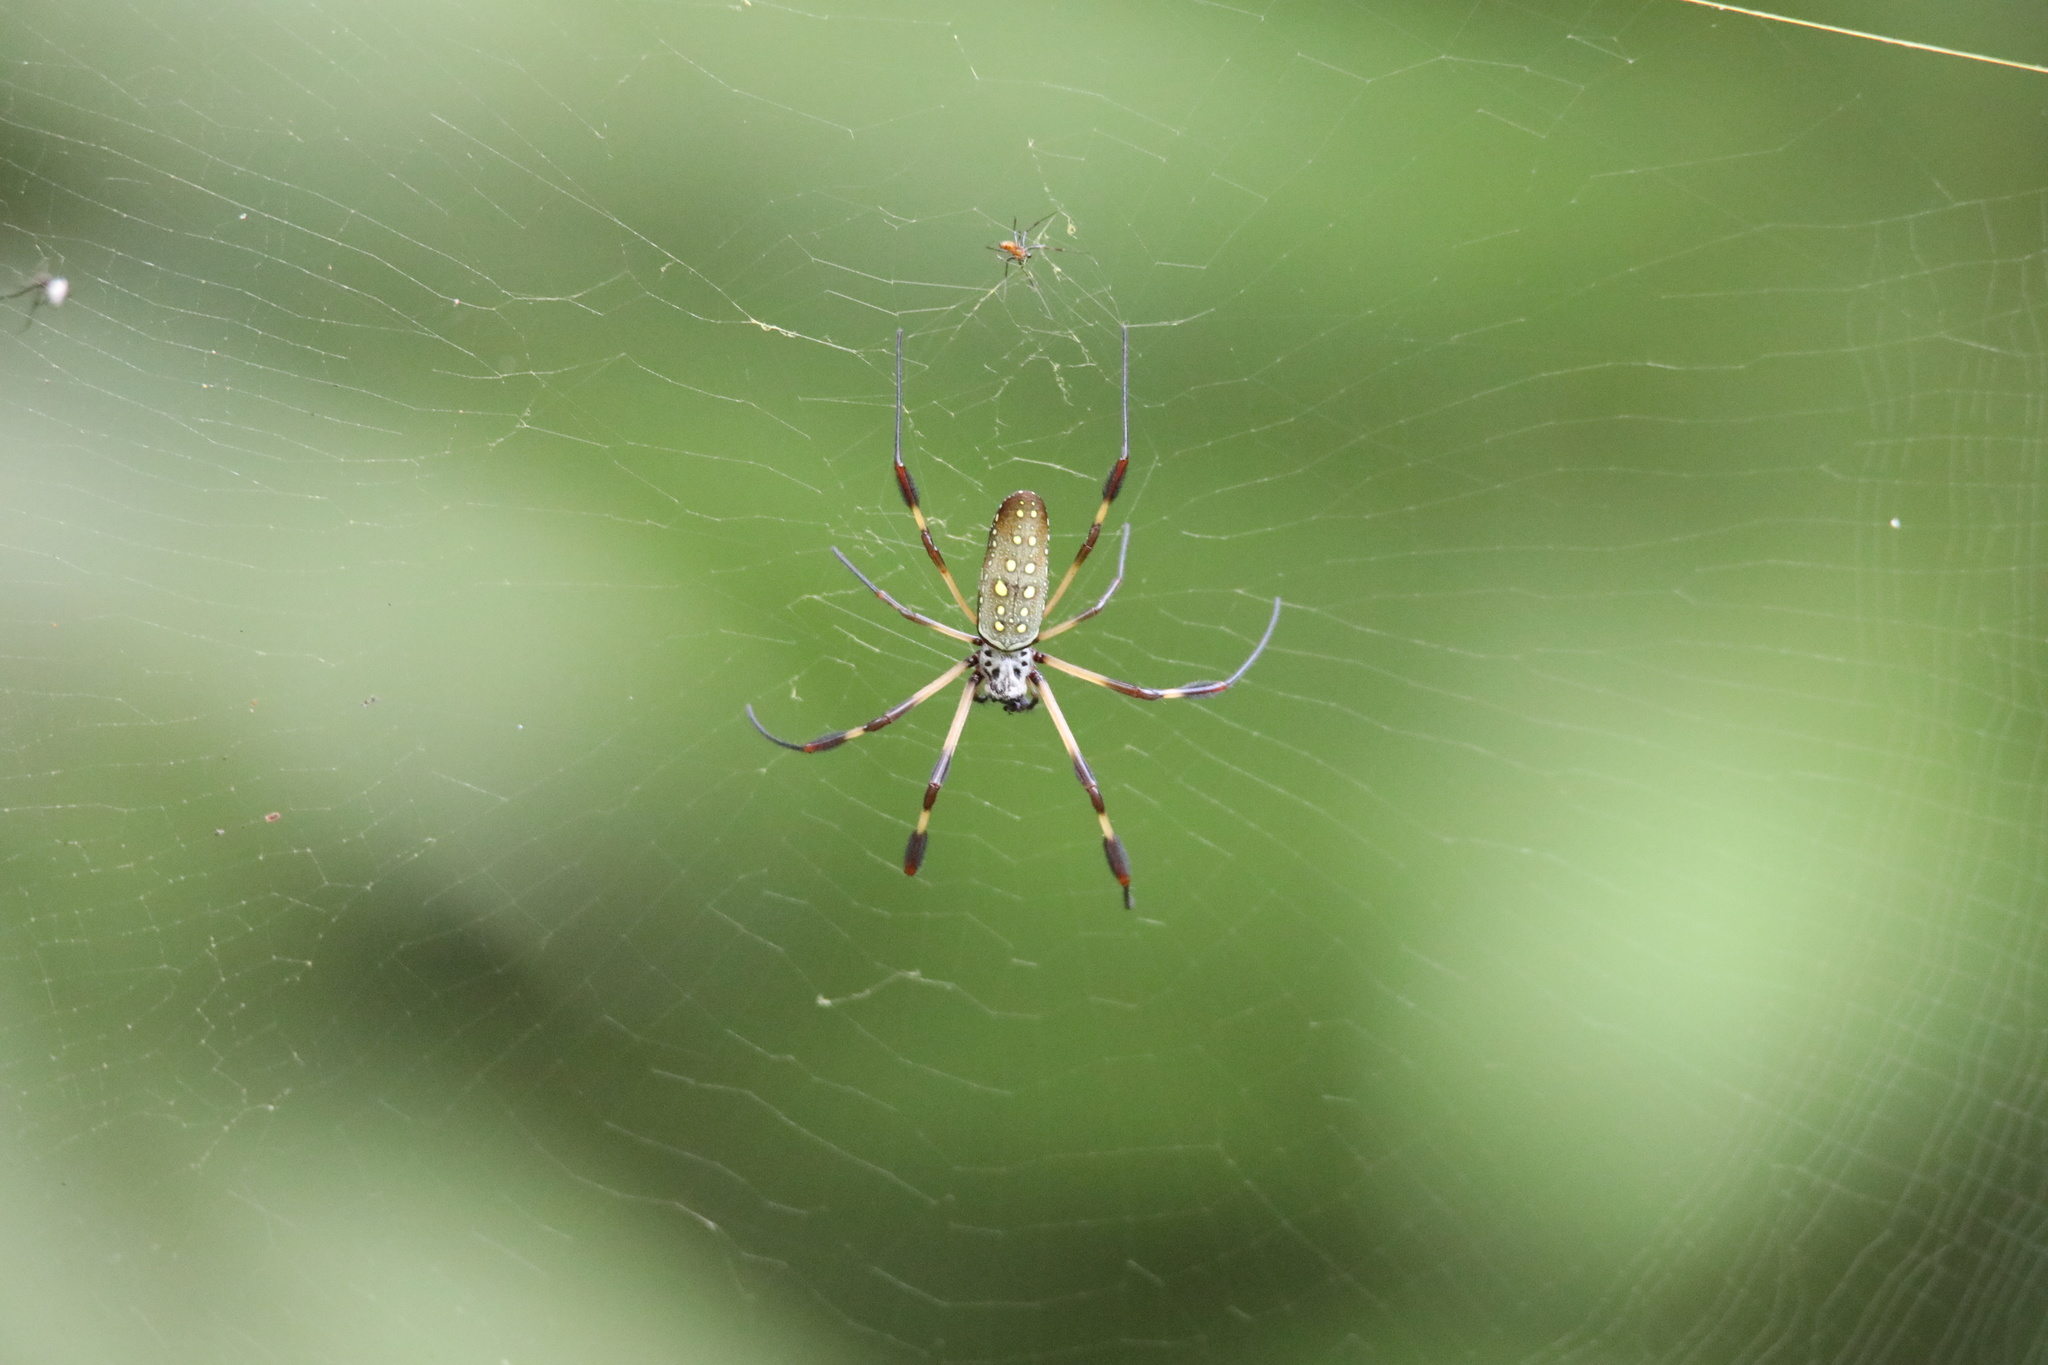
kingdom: Animalia
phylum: Arthropoda
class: Arachnida
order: Araneae
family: Araneidae
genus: Trichonephila
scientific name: Trichonephila clavipes
